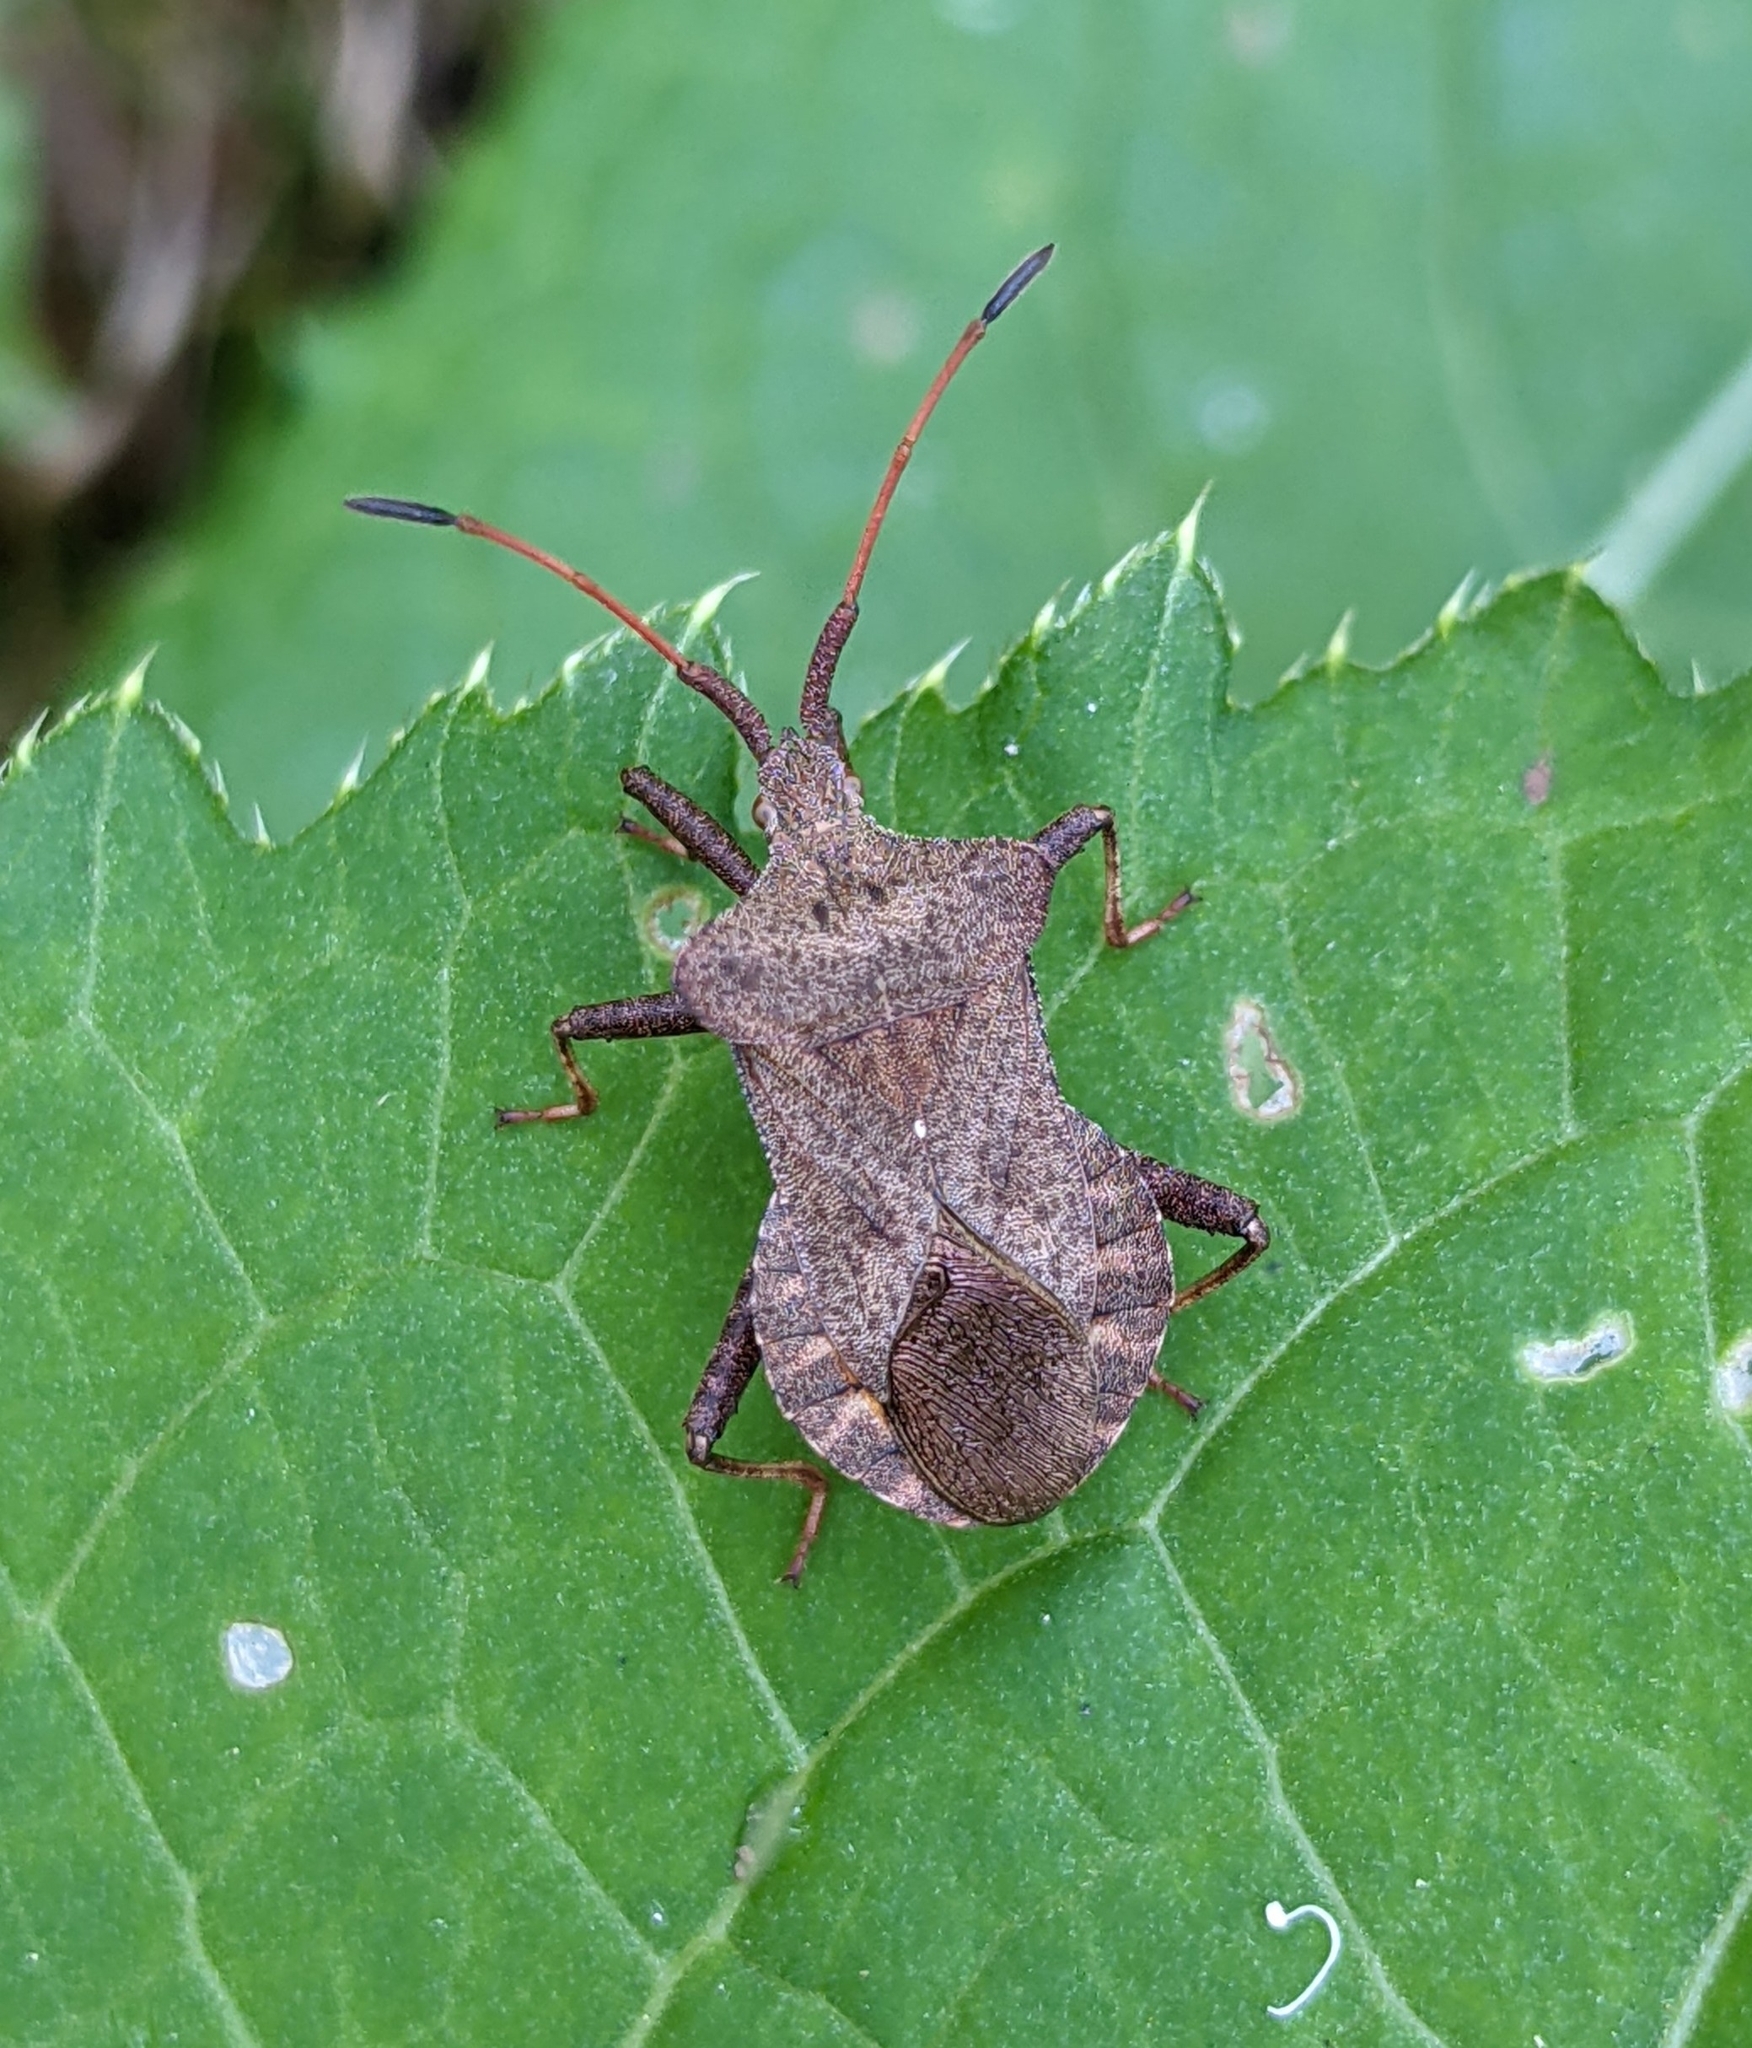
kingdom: Animalia
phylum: Arthropoda
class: Insecta
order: Hemiptera
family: Coreidae
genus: Coreus
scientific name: Coreus marginatus
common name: Dock bug
